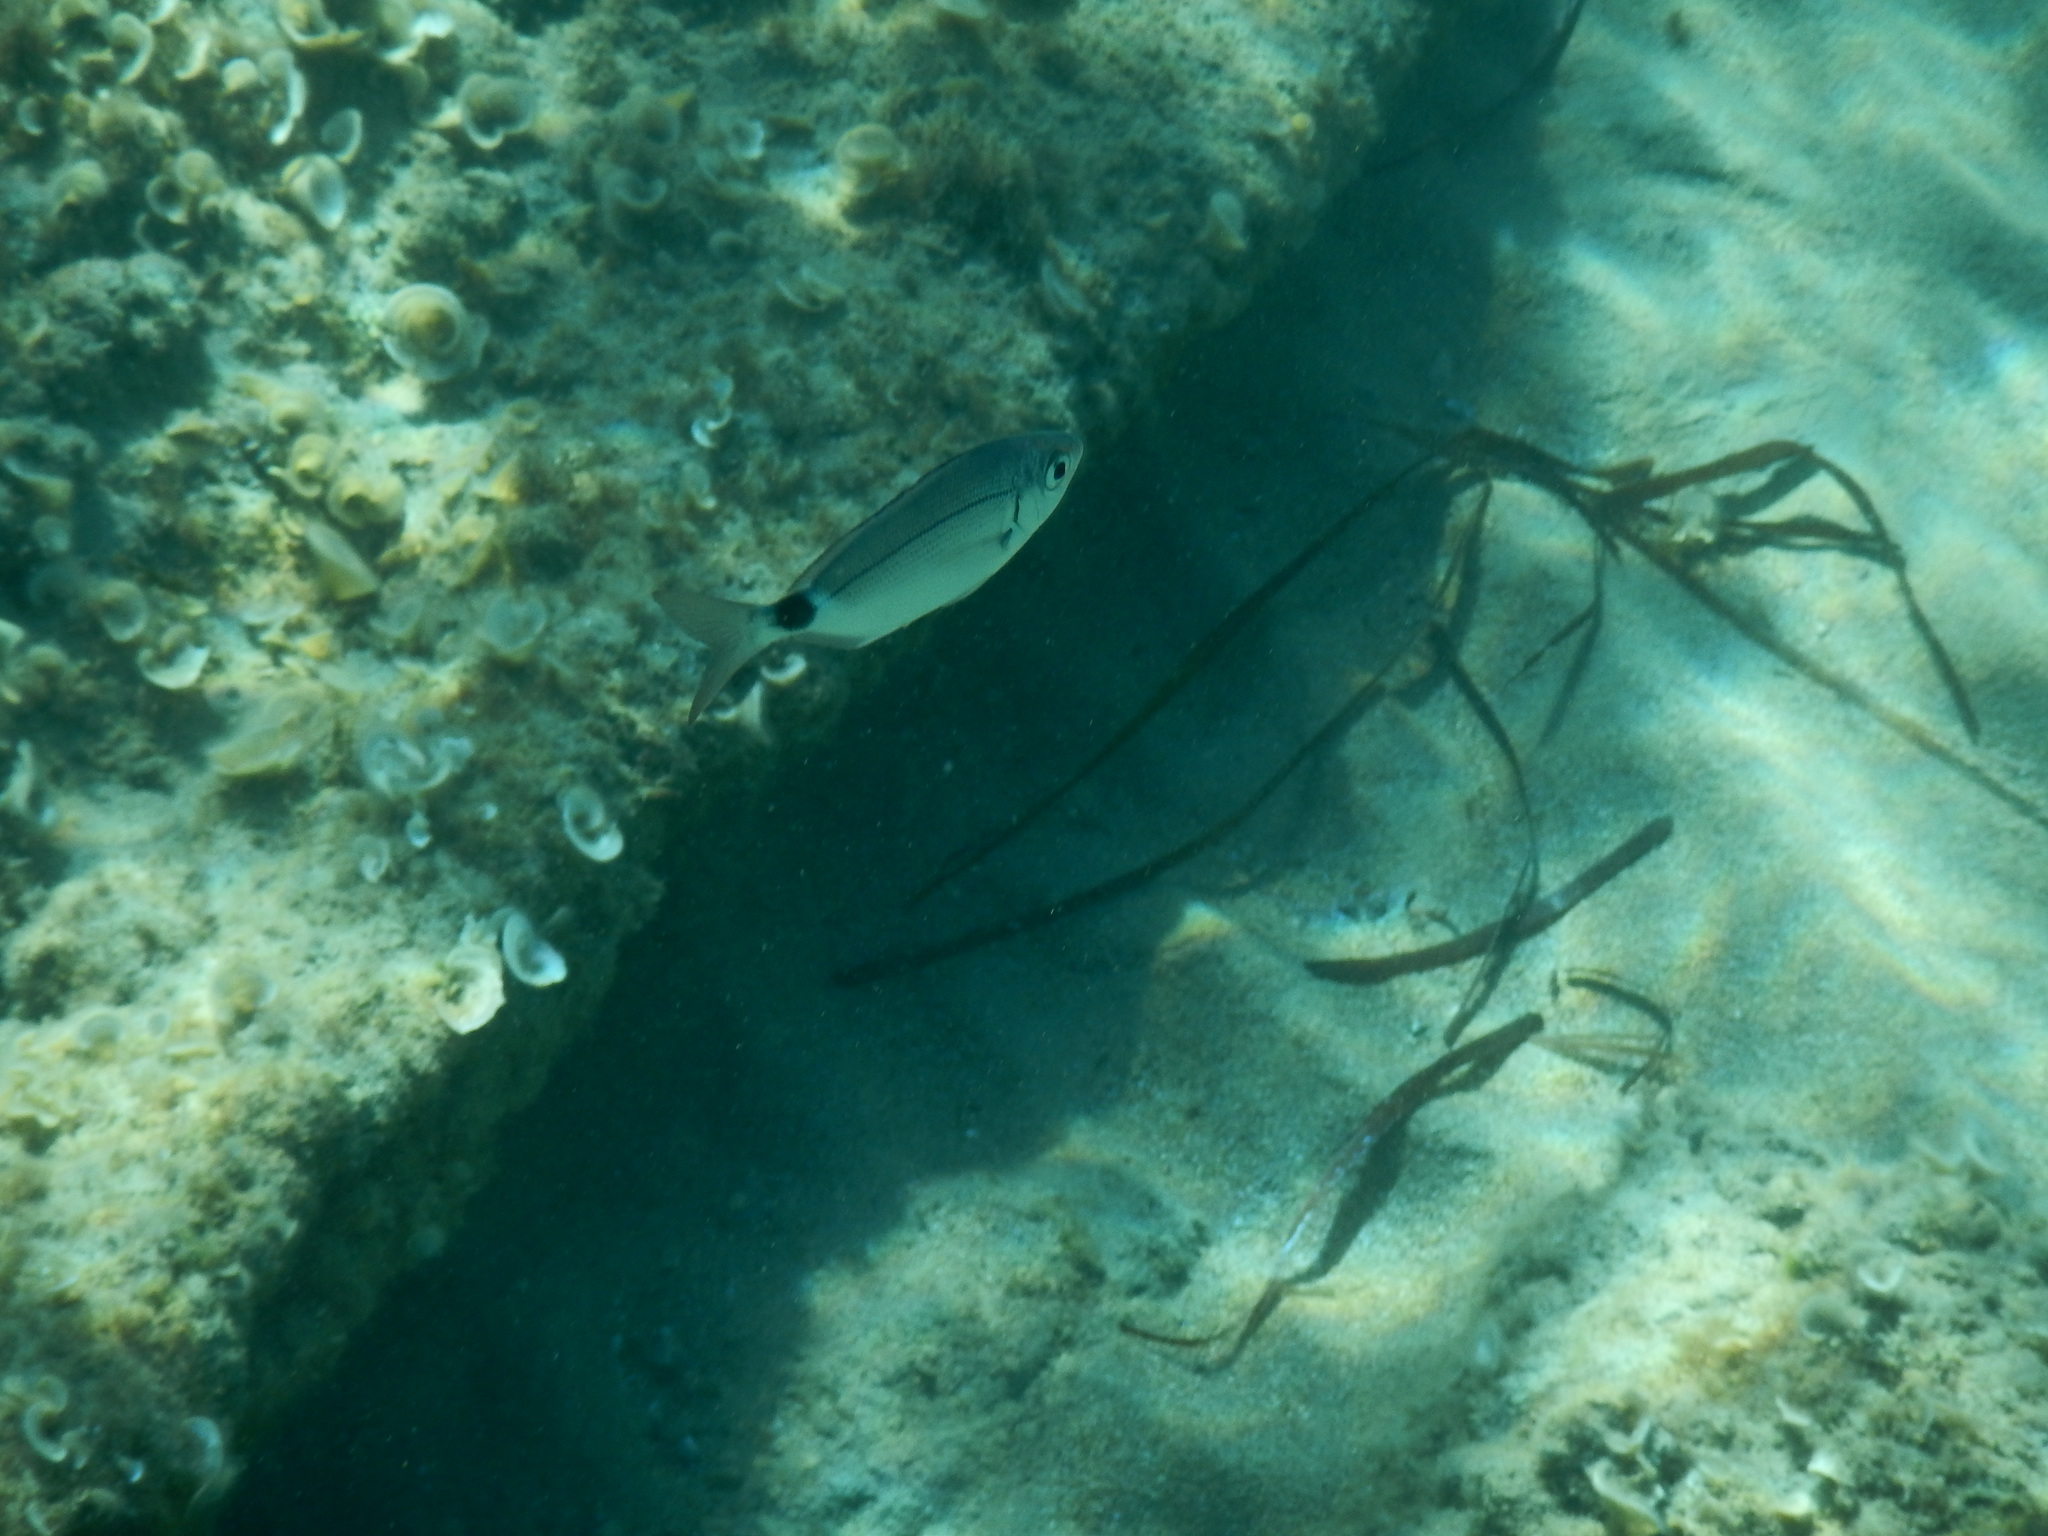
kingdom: Animalia
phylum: Chordata
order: Perciformes
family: Sparidae
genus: Oblada
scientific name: Oblada melanura
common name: Saddled seabream
